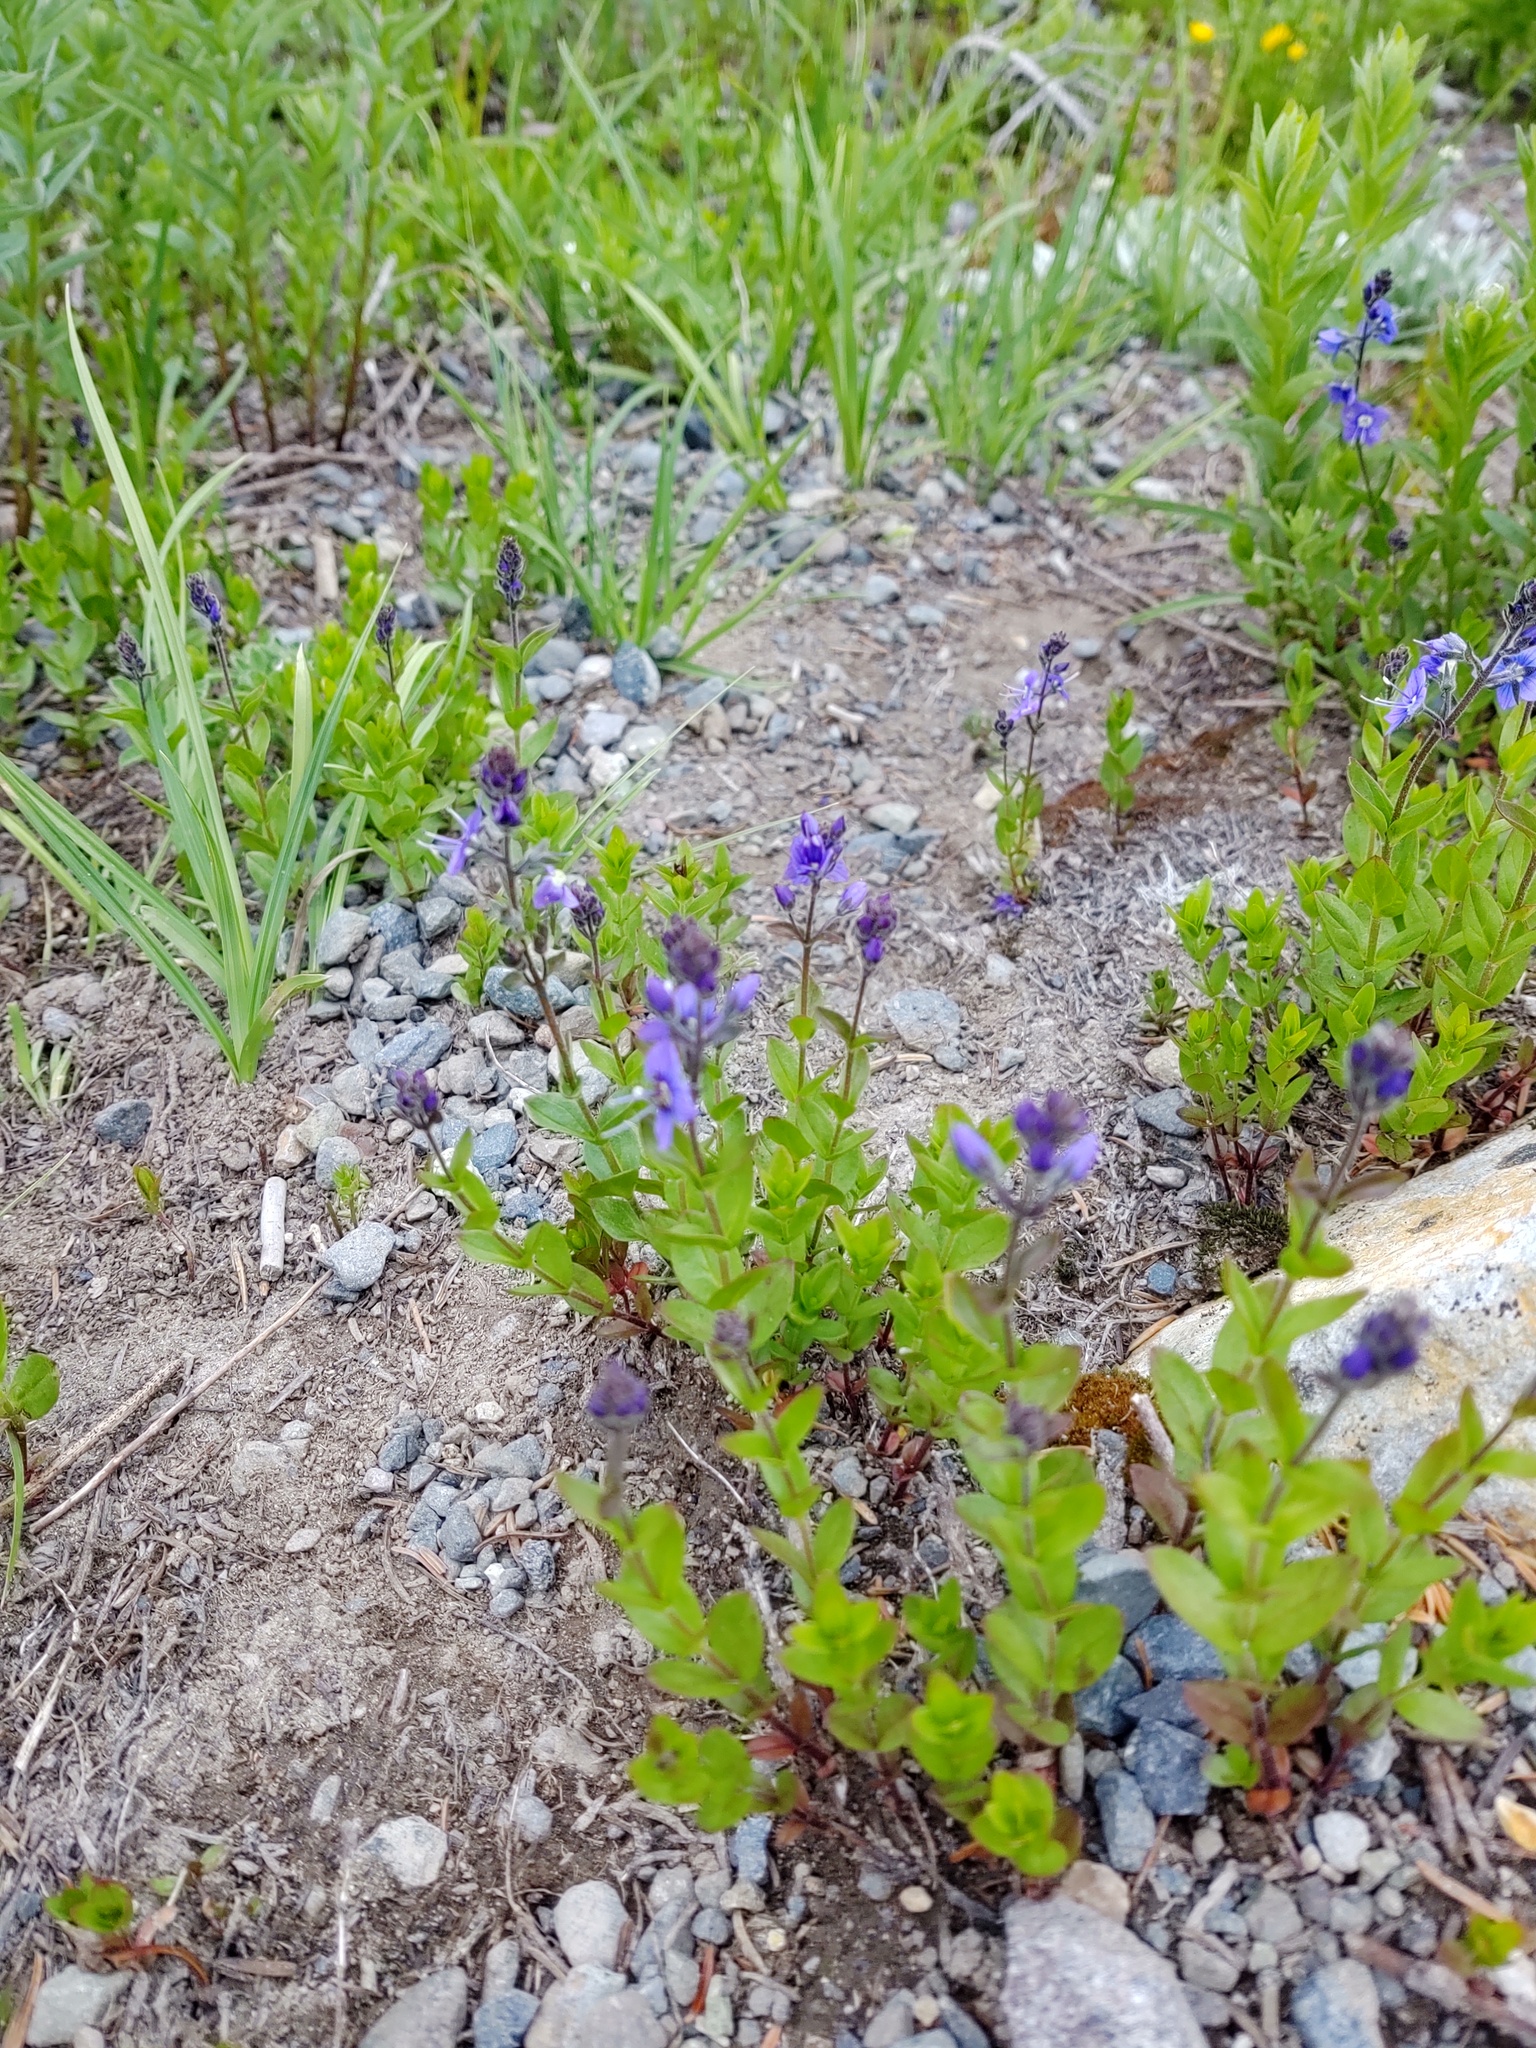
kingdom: Plantae
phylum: Tracheophyta
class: Magnoliopsida
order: Lamiales
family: Plantaginaceae
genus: Veronica
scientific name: Veronica cusickii
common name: Cusick's speedwell
